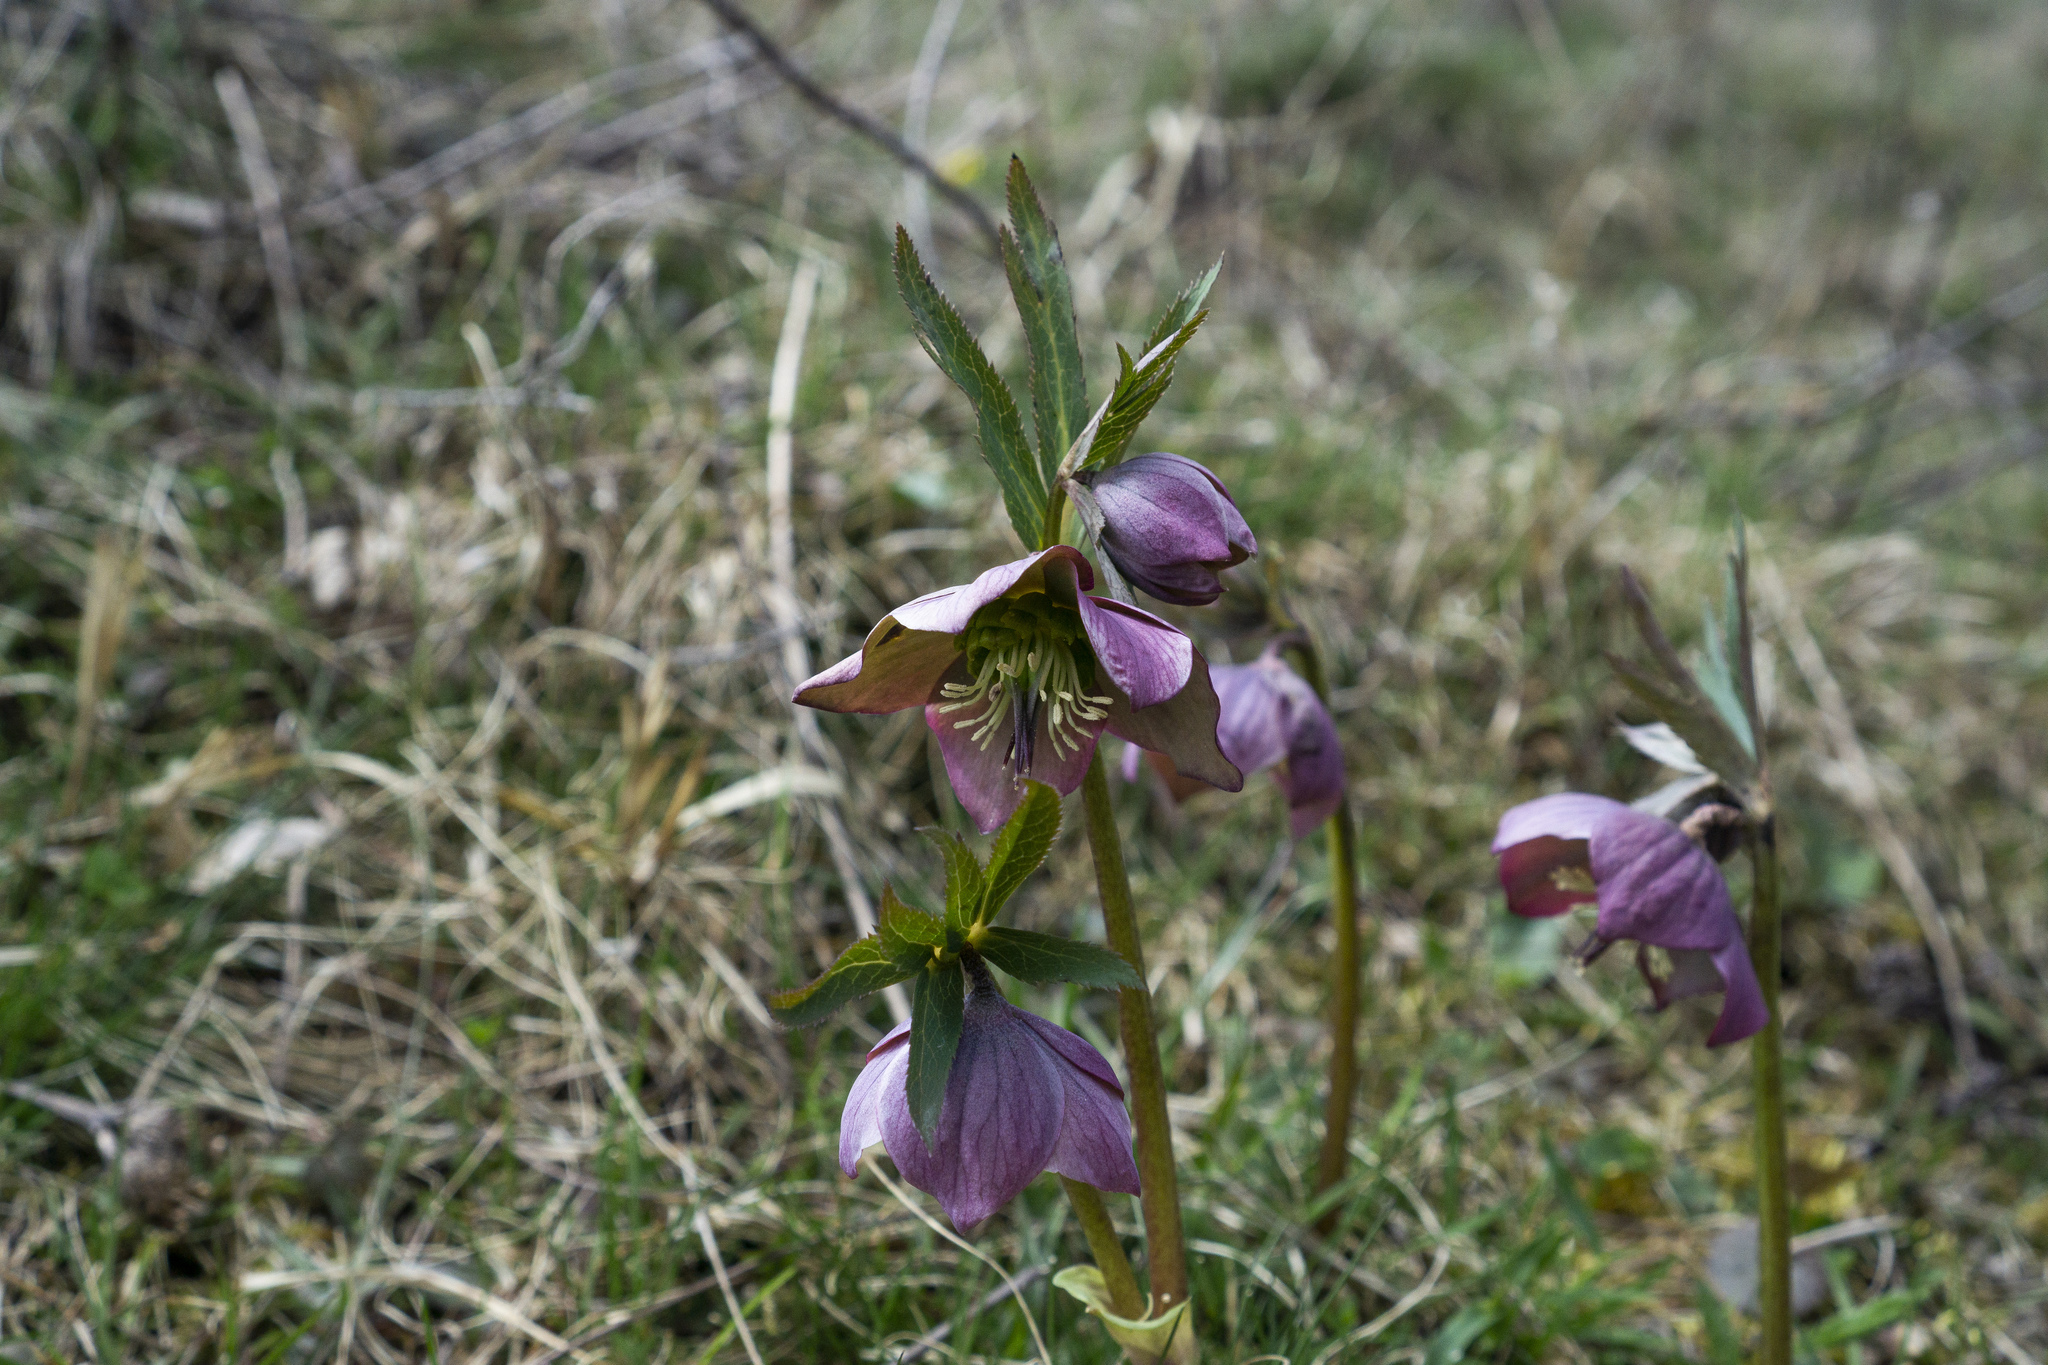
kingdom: Plantae
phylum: Tracheophyta
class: Magnoliopsida
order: Ranunculales
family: Ranunculaceae
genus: Helleborus
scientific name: Helleborus purpurascens
